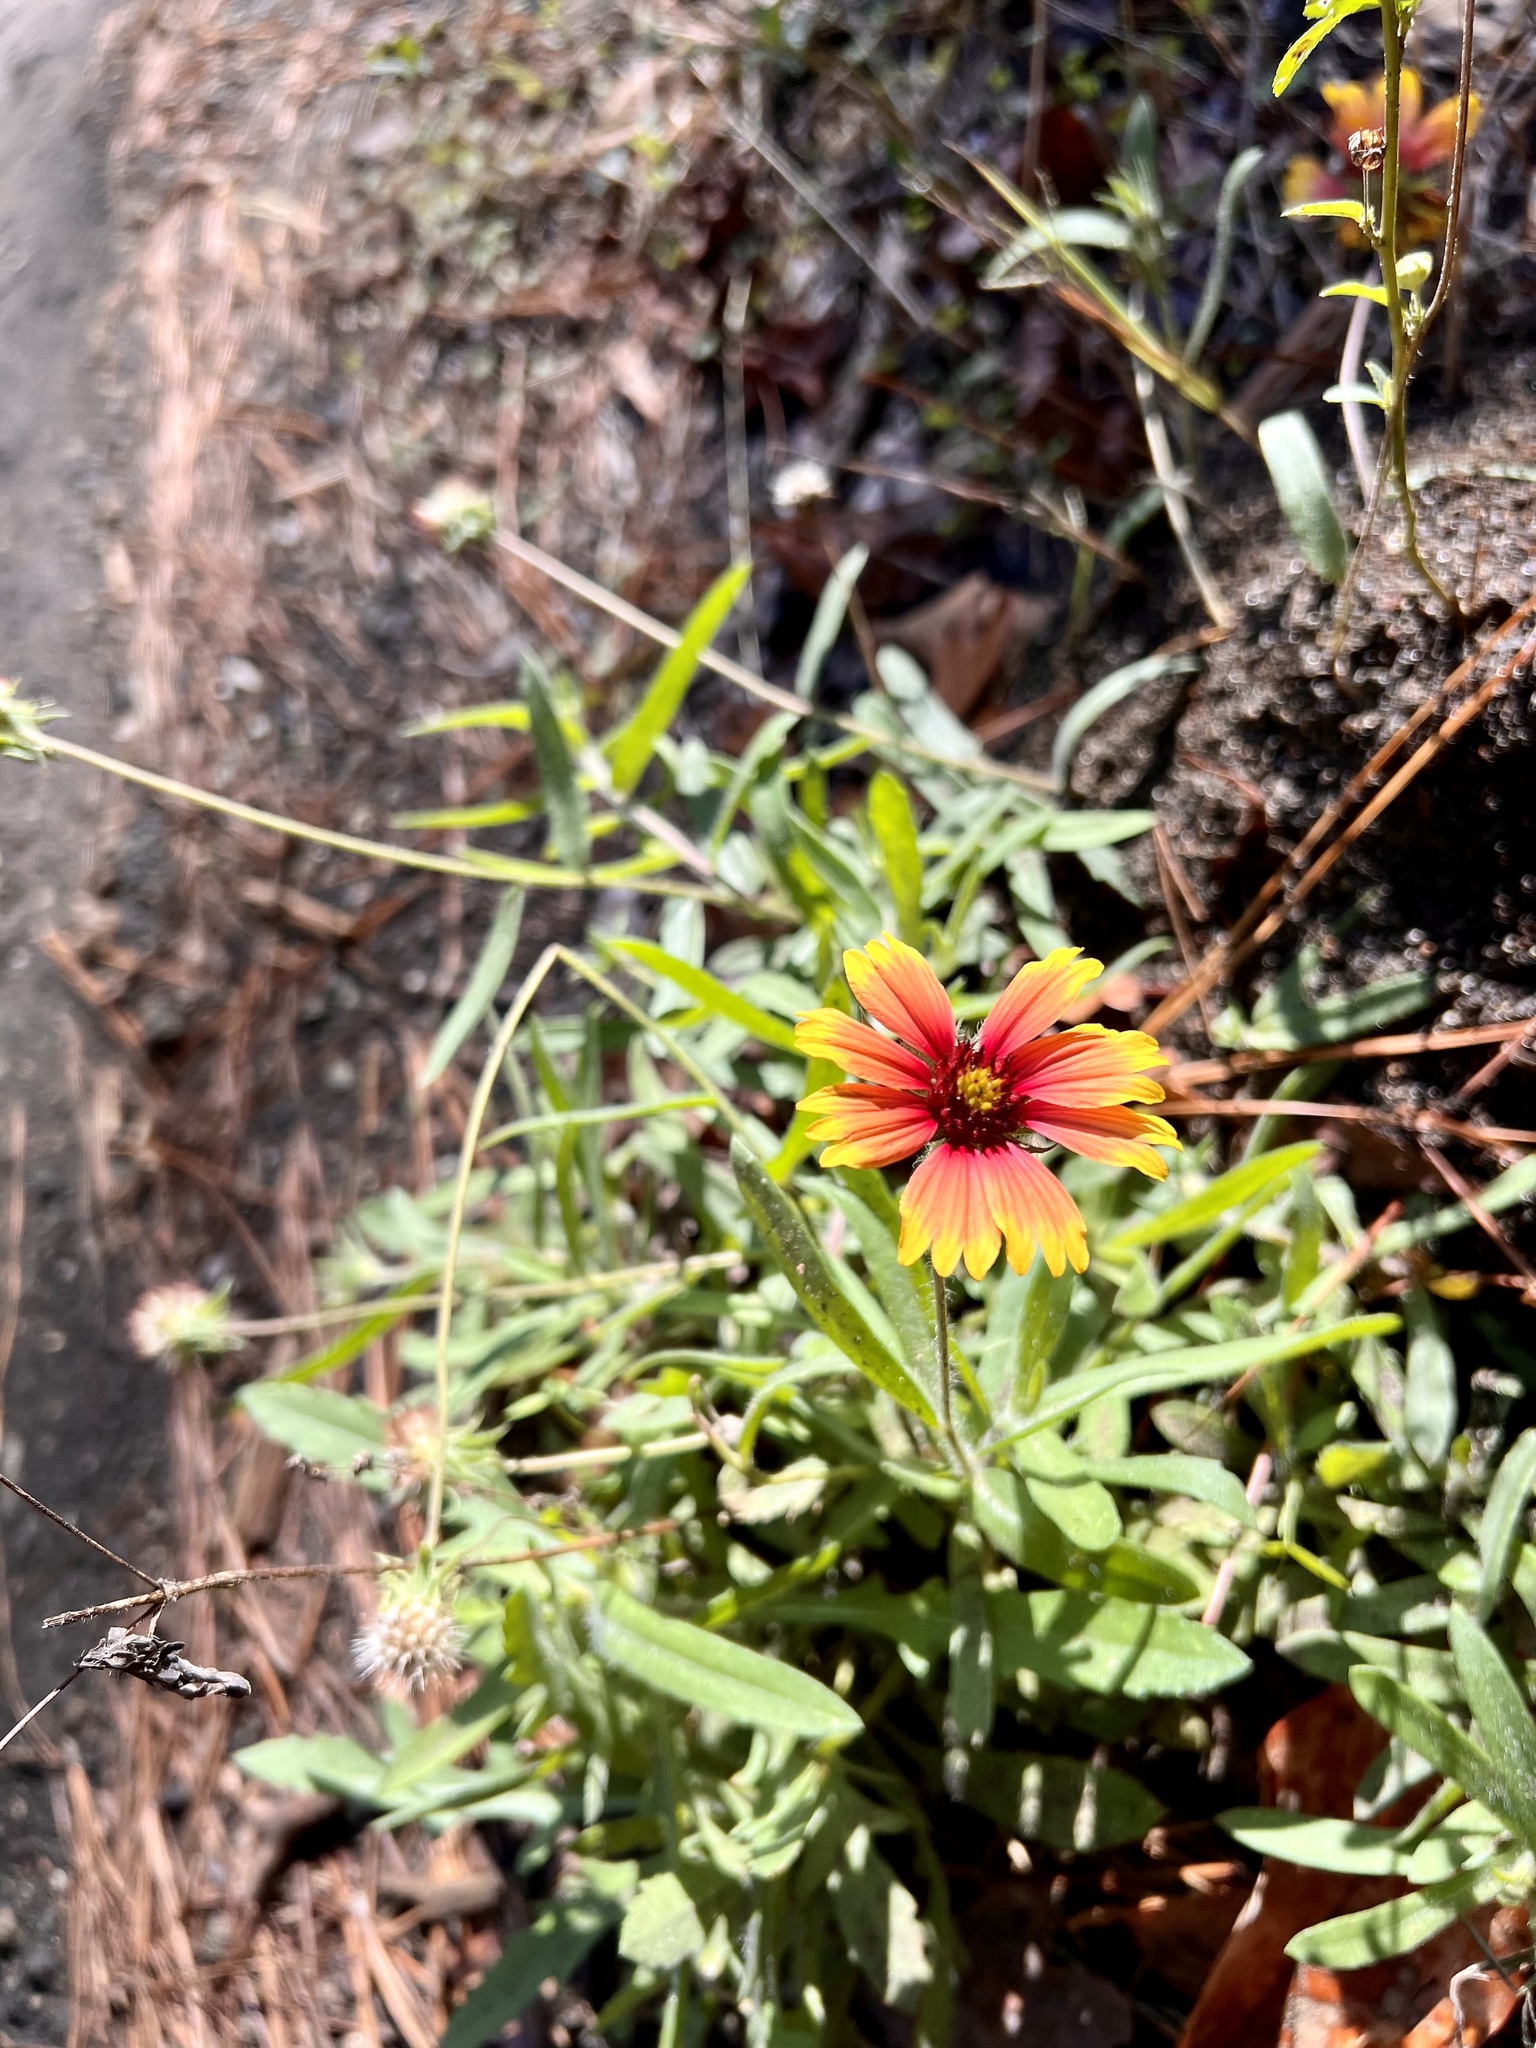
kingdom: Plantae
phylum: Tracheophyta
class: Magnoliopsida
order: Asterales
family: Asteraceae
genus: Gaillardia
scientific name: Gaillardia pulchella
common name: Firewheel
